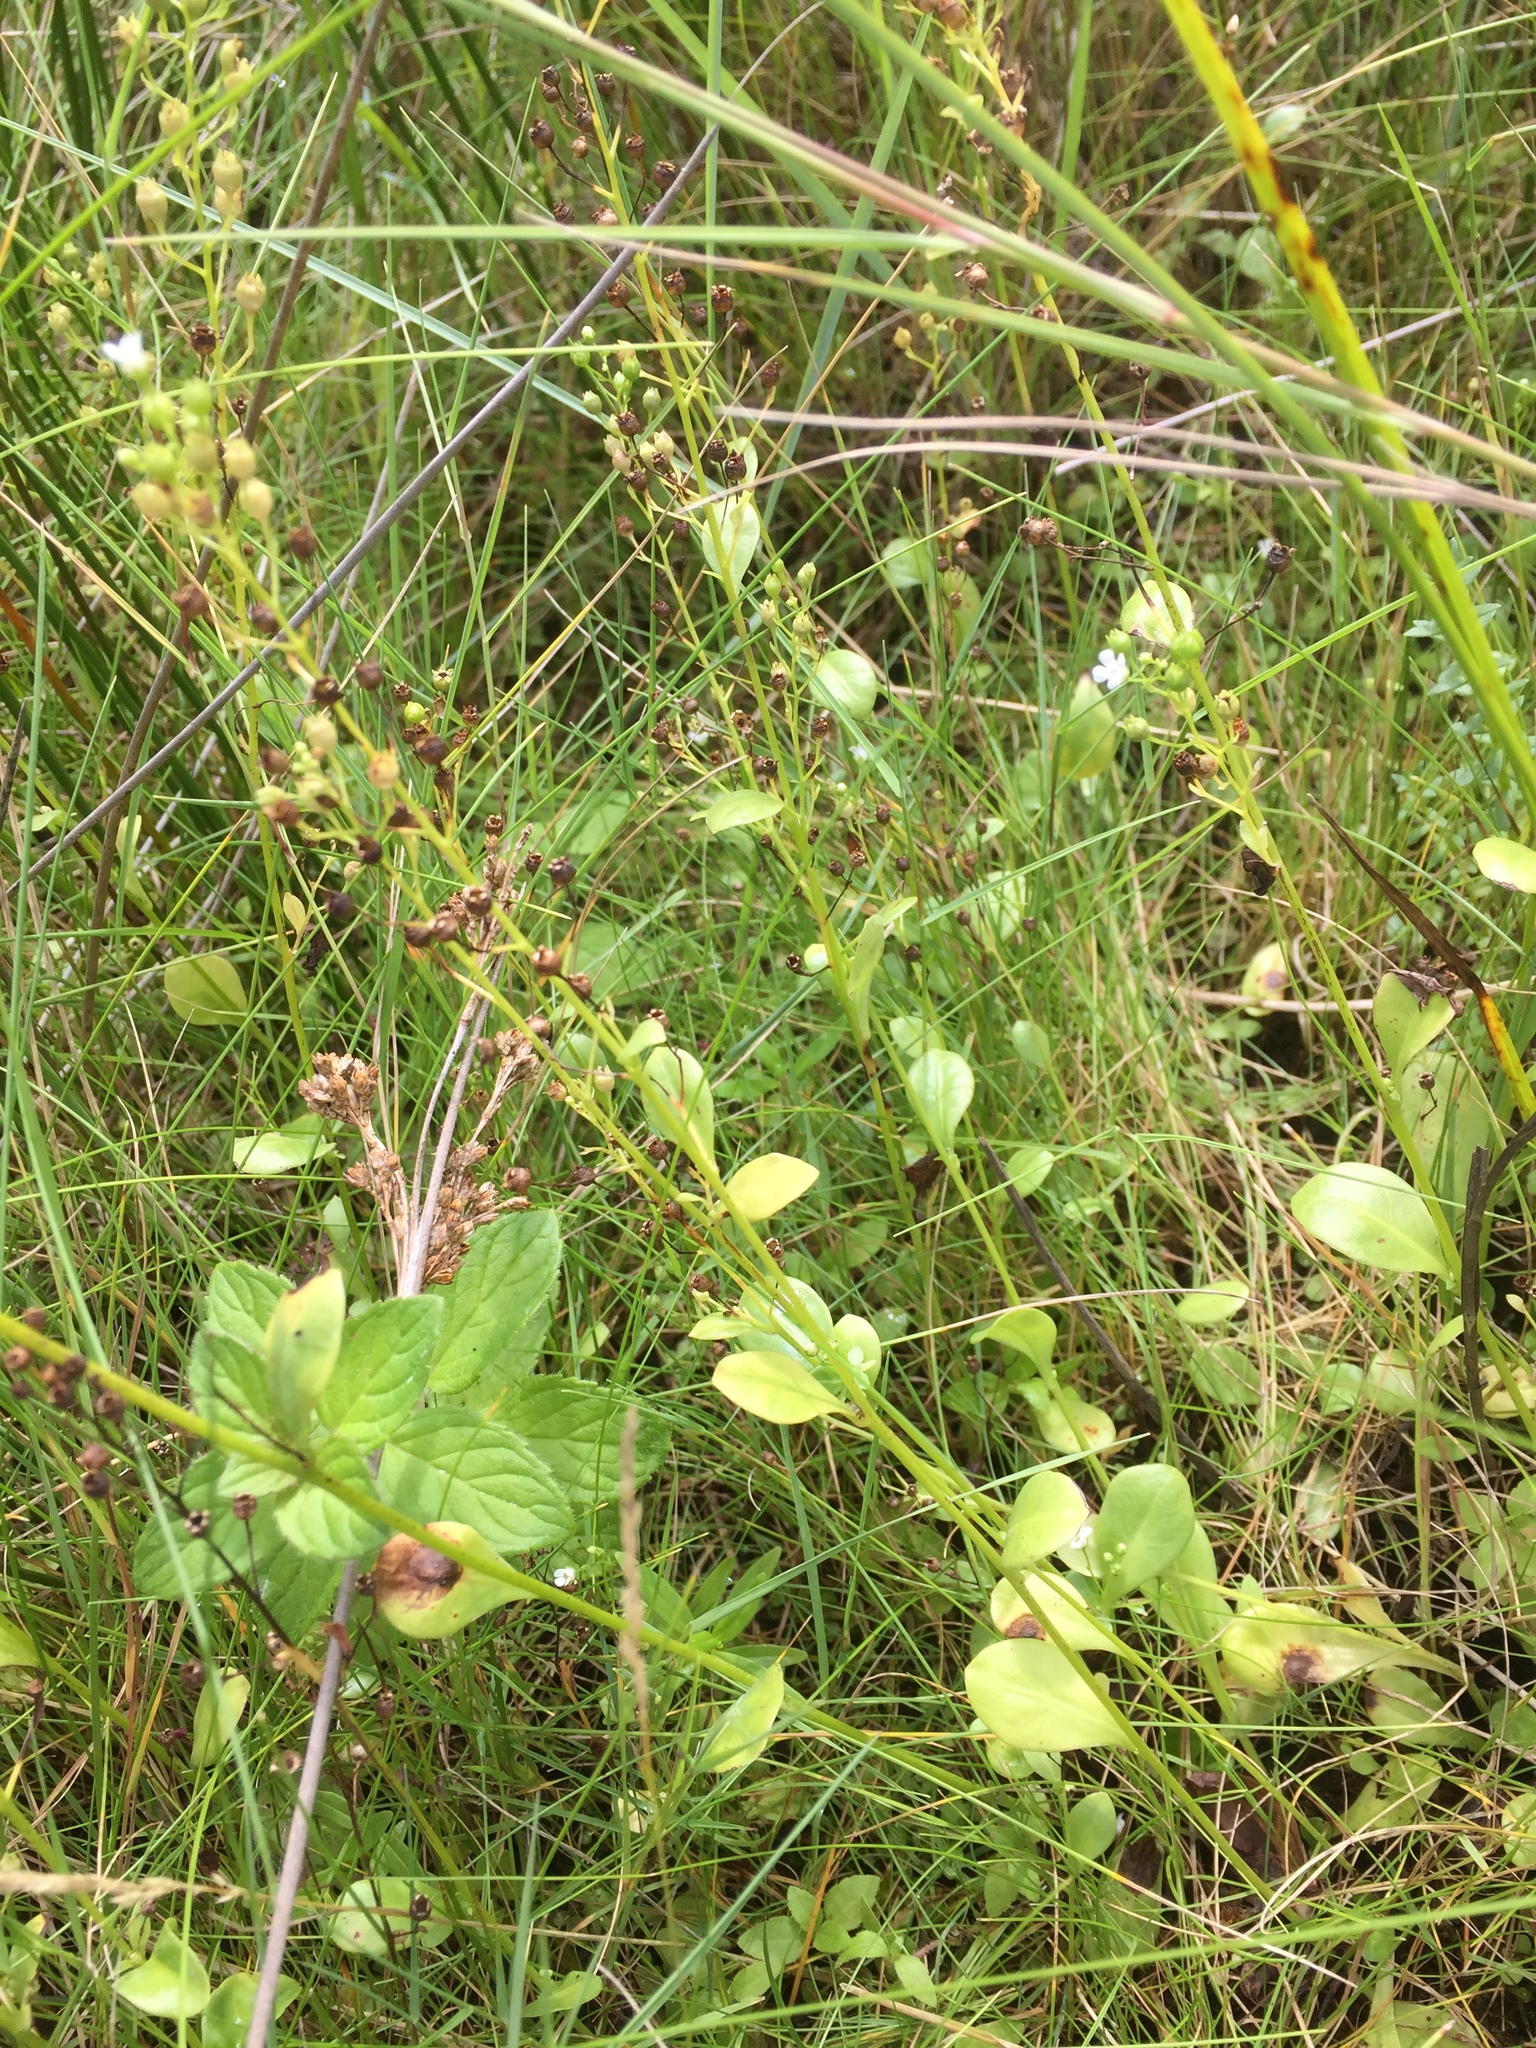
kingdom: Plantae
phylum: Tracheophyta
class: Magnoliopsida
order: Ericales
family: Primulaceae
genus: Samolus
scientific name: Samolus valerandi
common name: Brookweed
